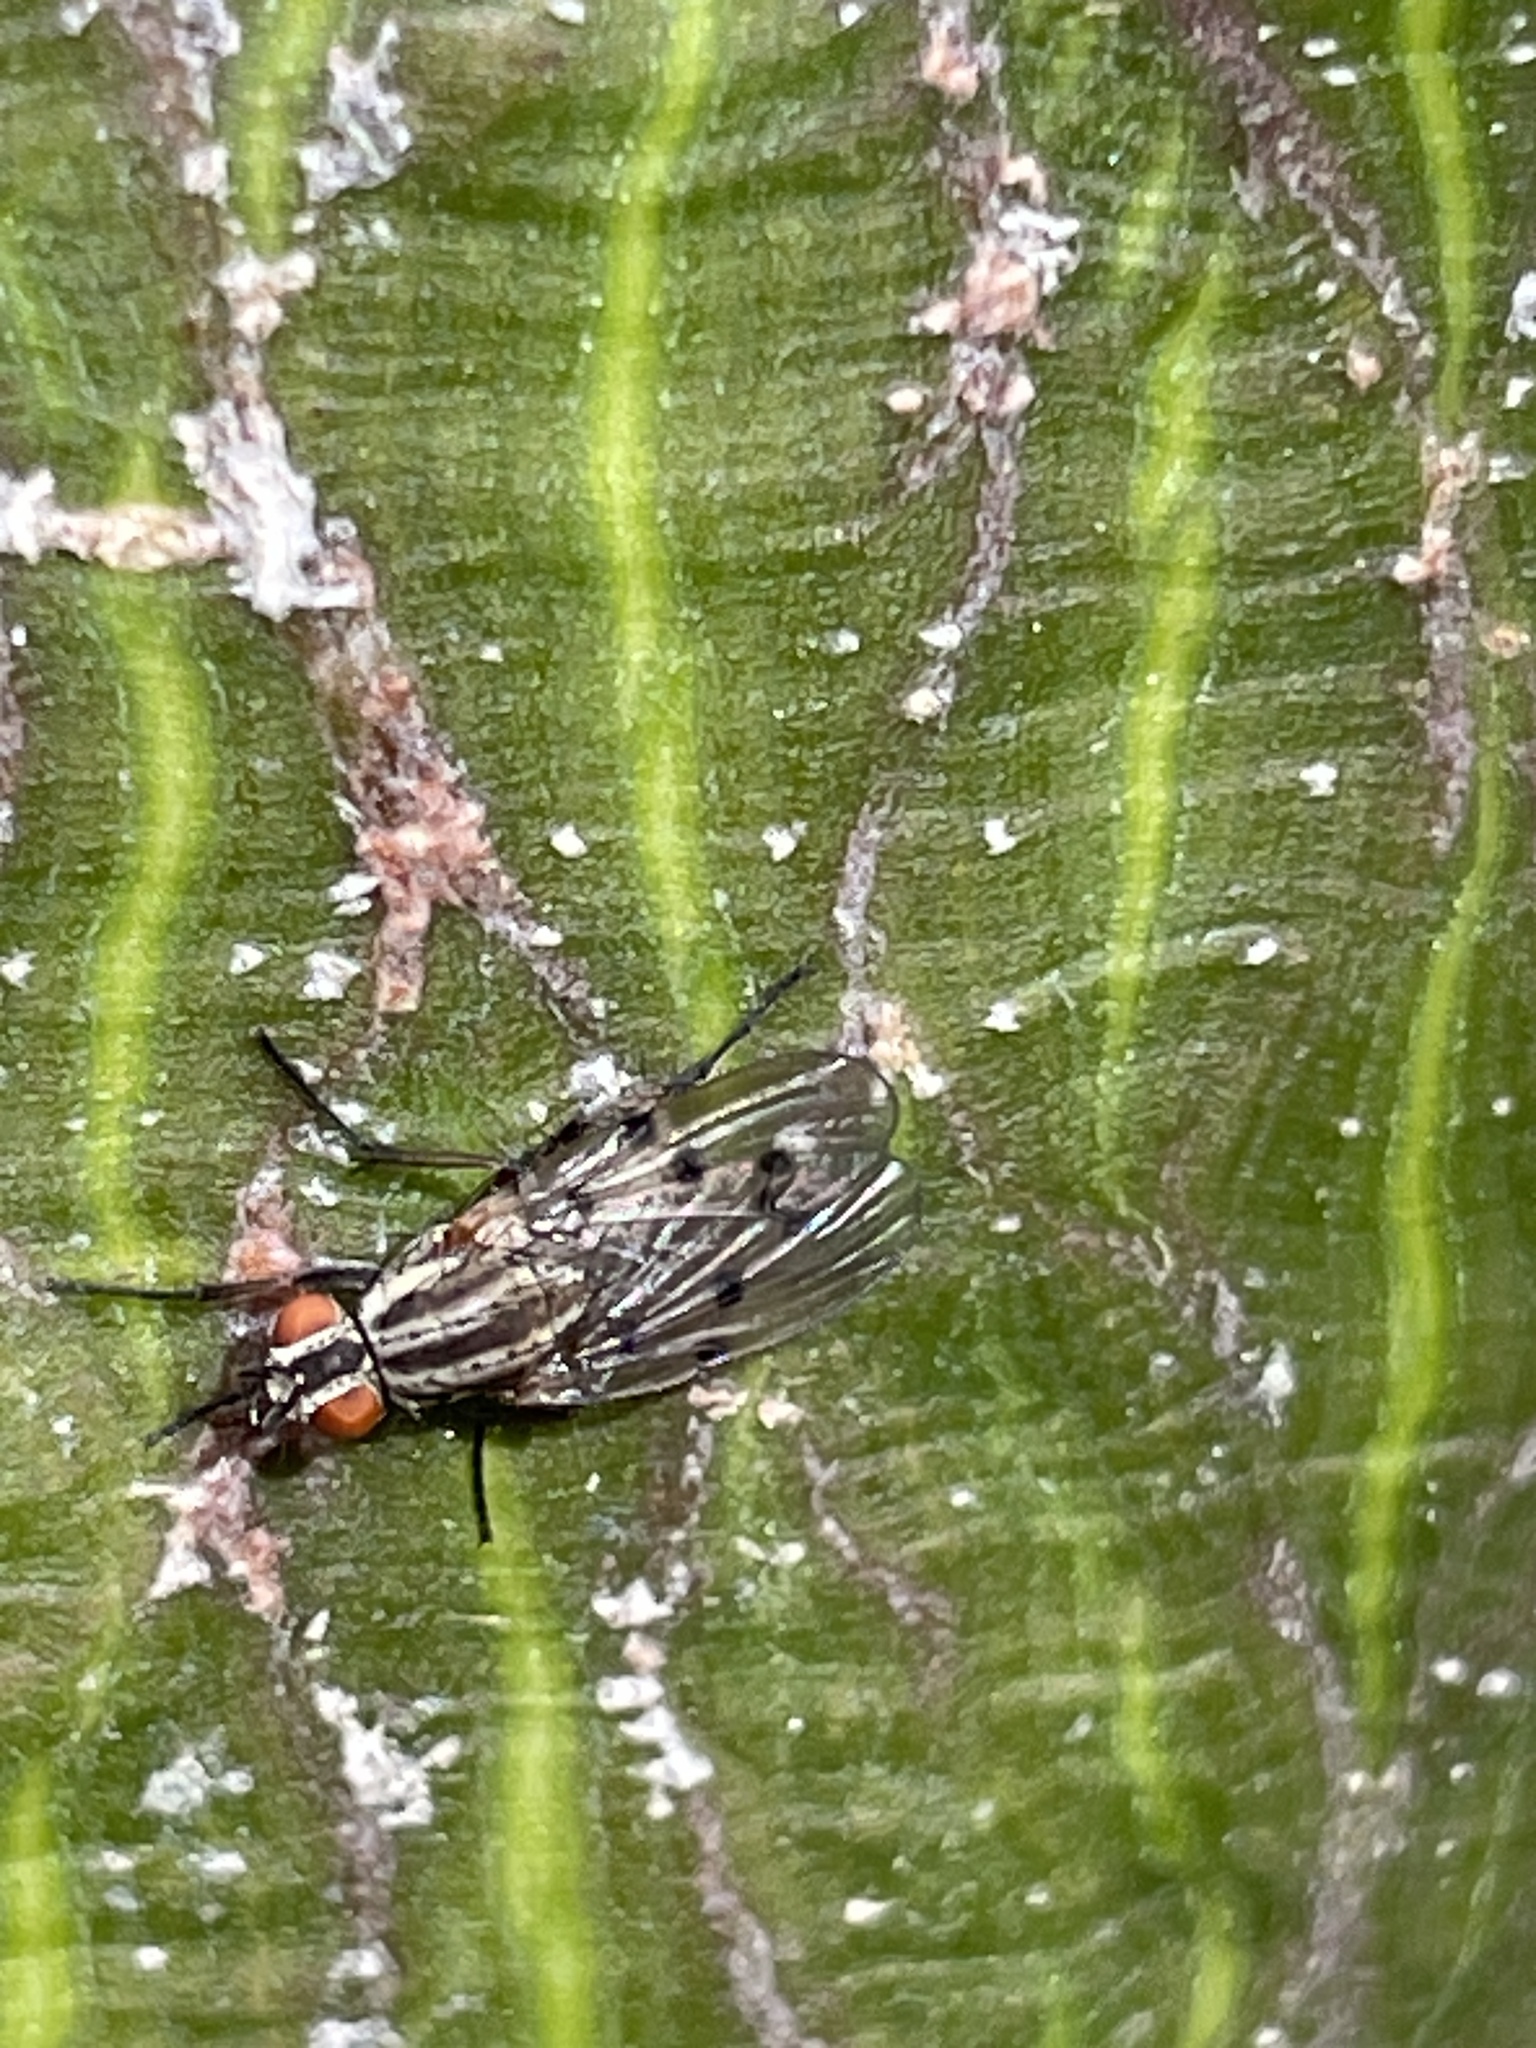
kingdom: Animalia
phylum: Arthropoda
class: Insecta
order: Diptera
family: Anthomyiidae
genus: Anthomyia
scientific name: Anthomyia punctipennis
